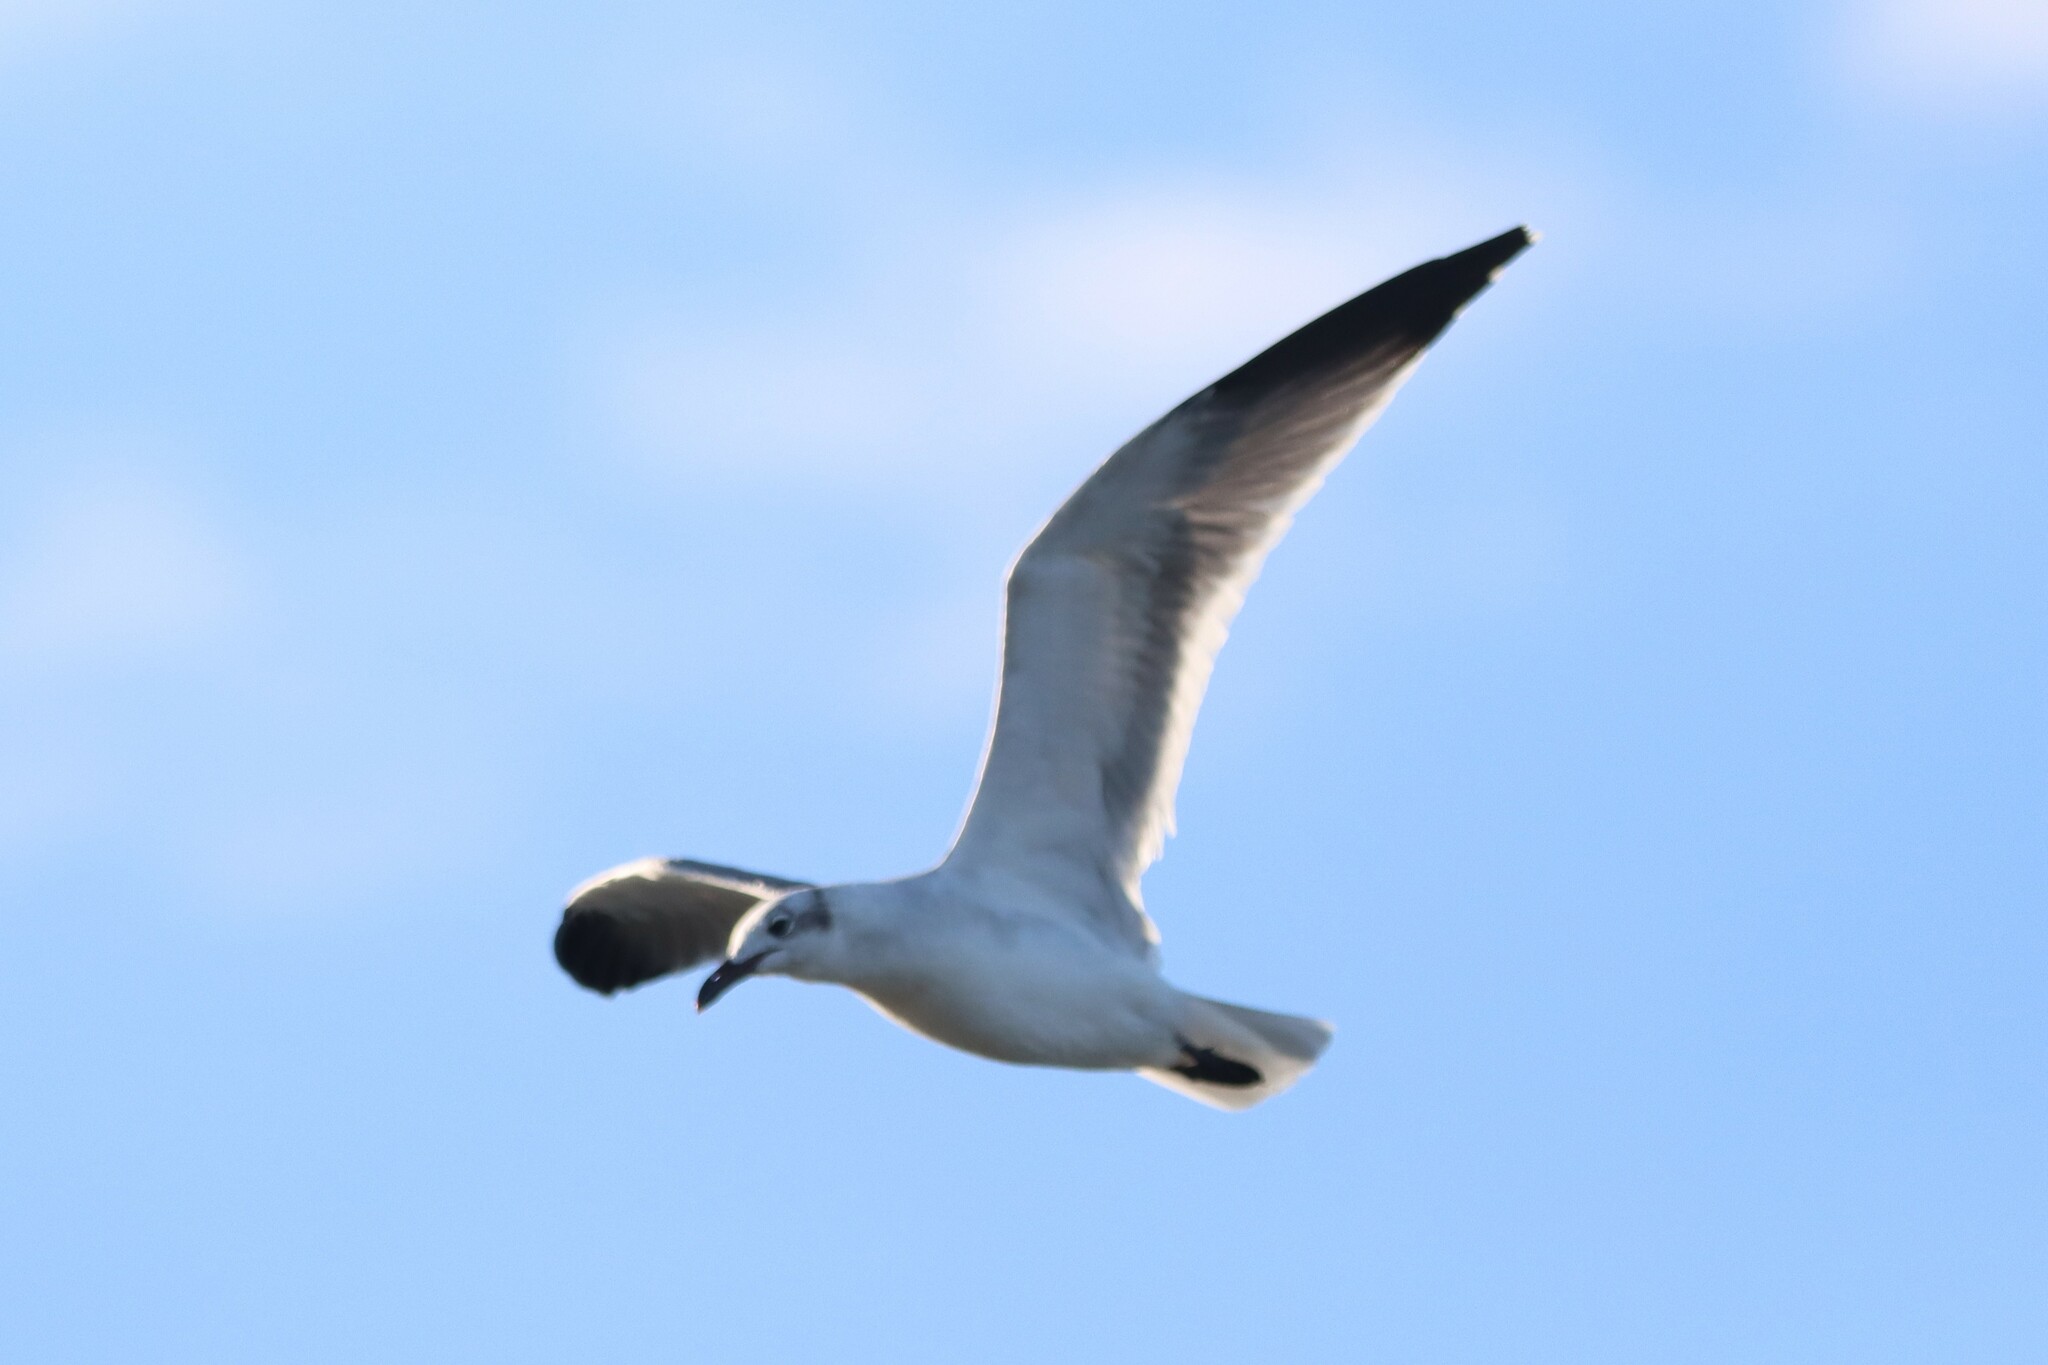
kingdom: Animalia
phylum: Chordata
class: Aves
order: Charadriiformes
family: Laridae
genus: Leucophaeus
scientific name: Leucophaeus atricilla
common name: Laughing gull
